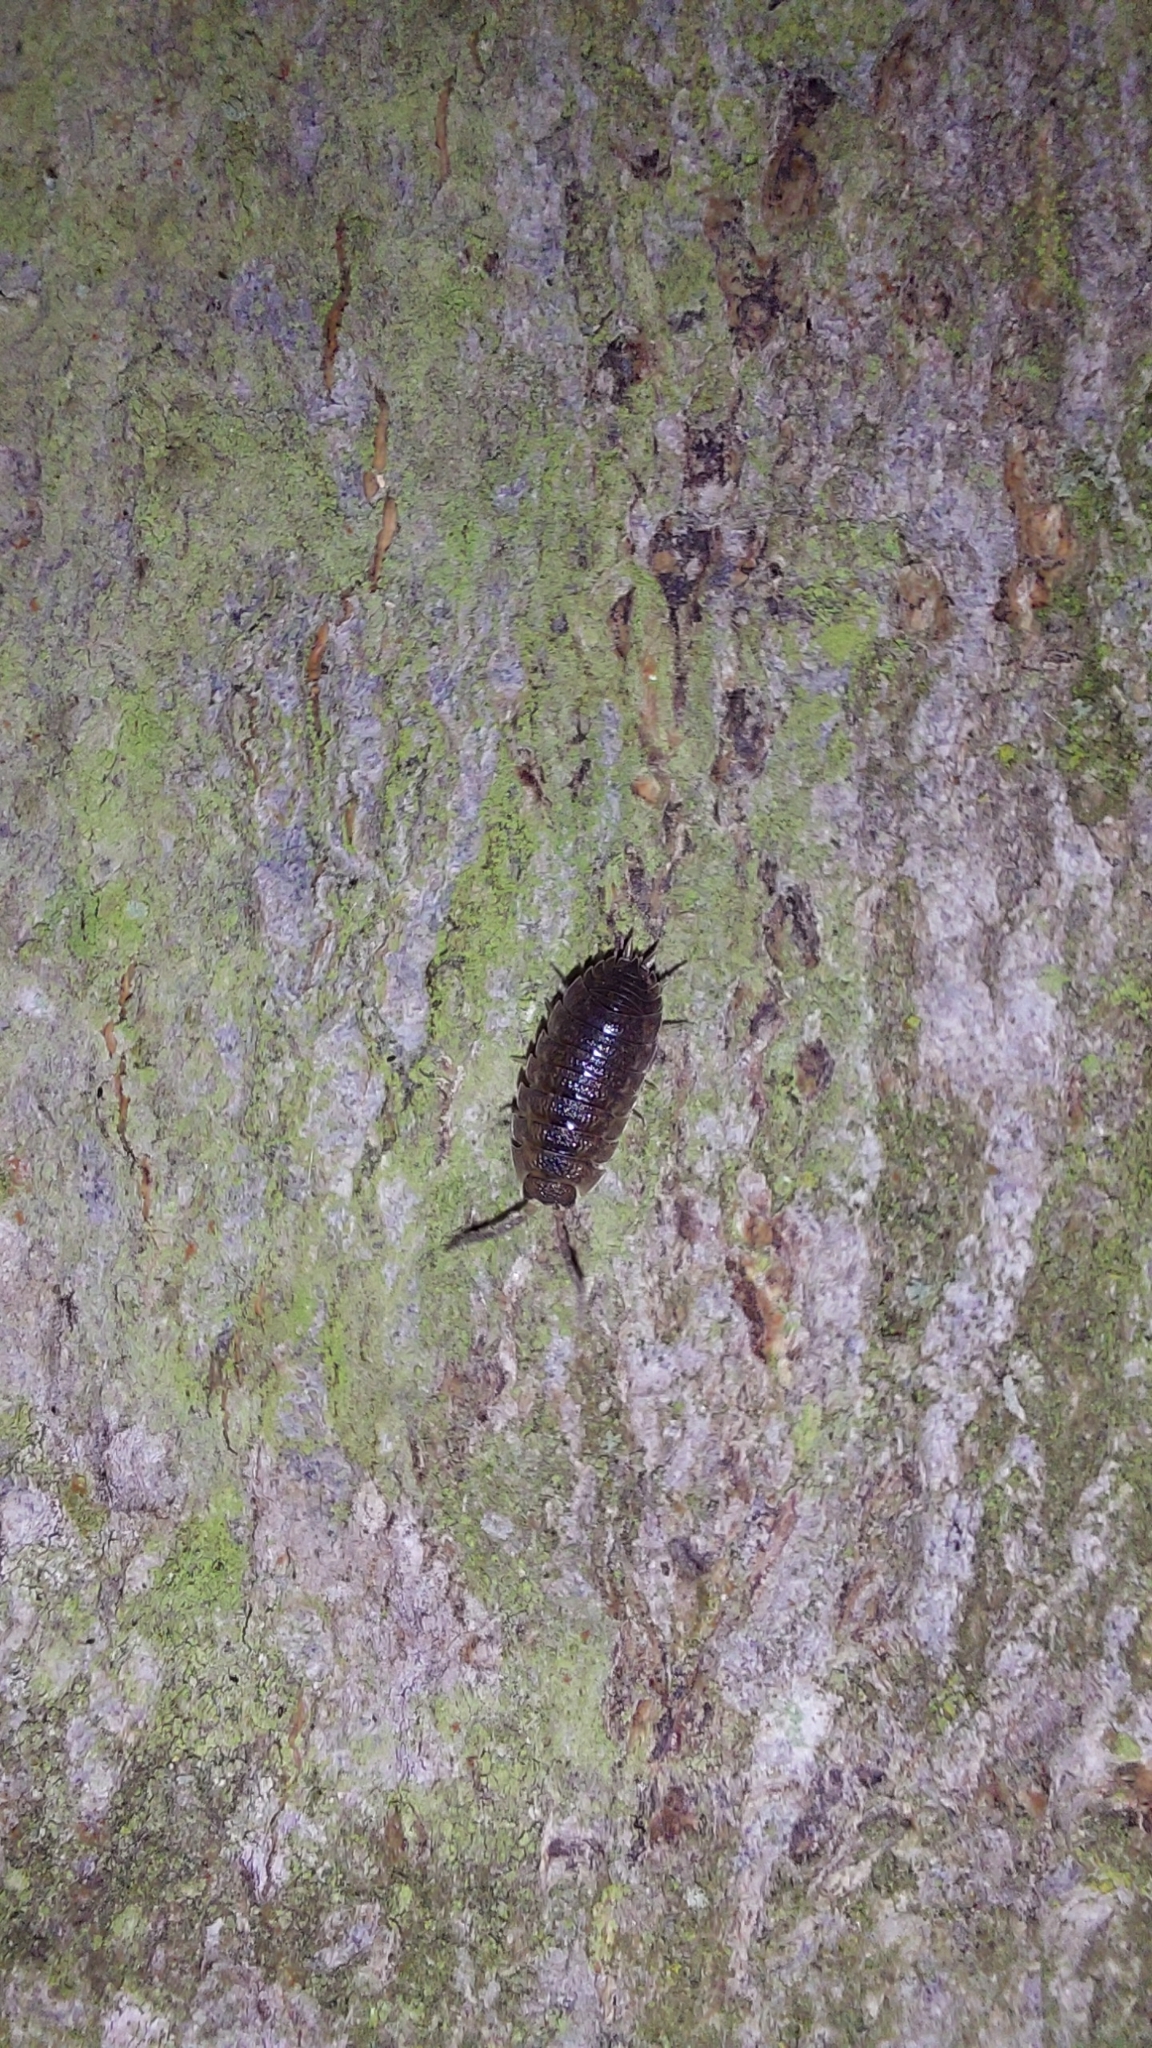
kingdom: Animalia
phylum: Arthropoda
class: Malacostraca
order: Isopoda
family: Porcellionidae
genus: Porcellio
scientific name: Porcellio scaber
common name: Common rough woodlouse
